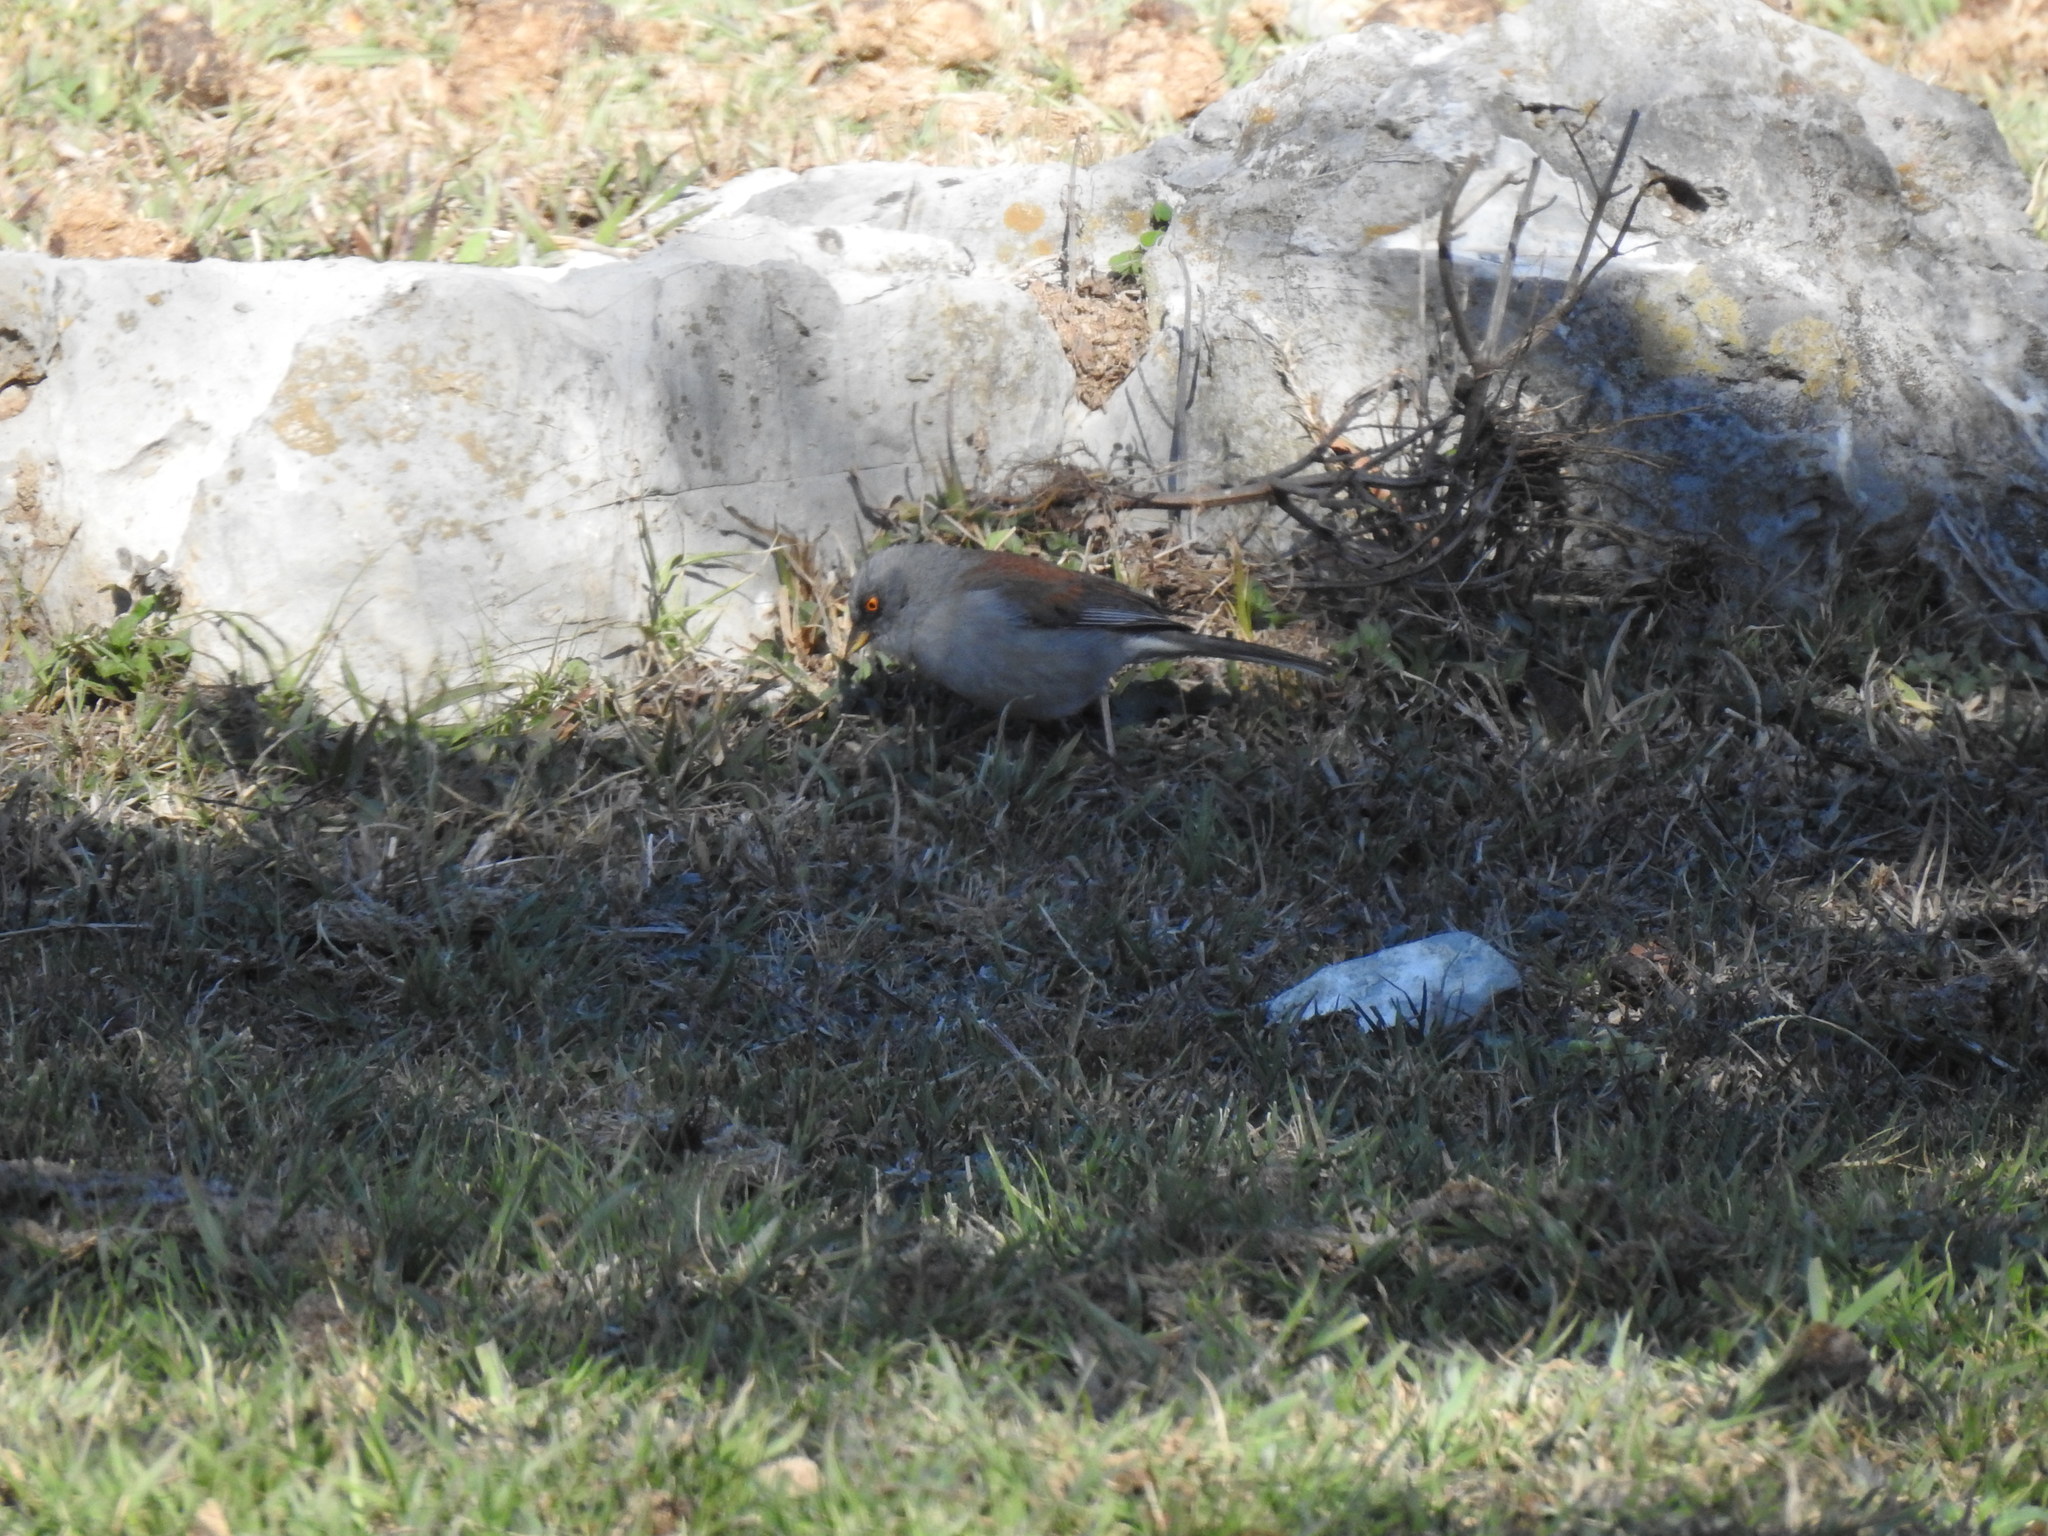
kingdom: Animalia
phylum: Chordata
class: Aves
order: Passeriformes
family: Passerellidae
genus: Junco
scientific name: Junco phaeonotus
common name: Yellow-eyed junco
